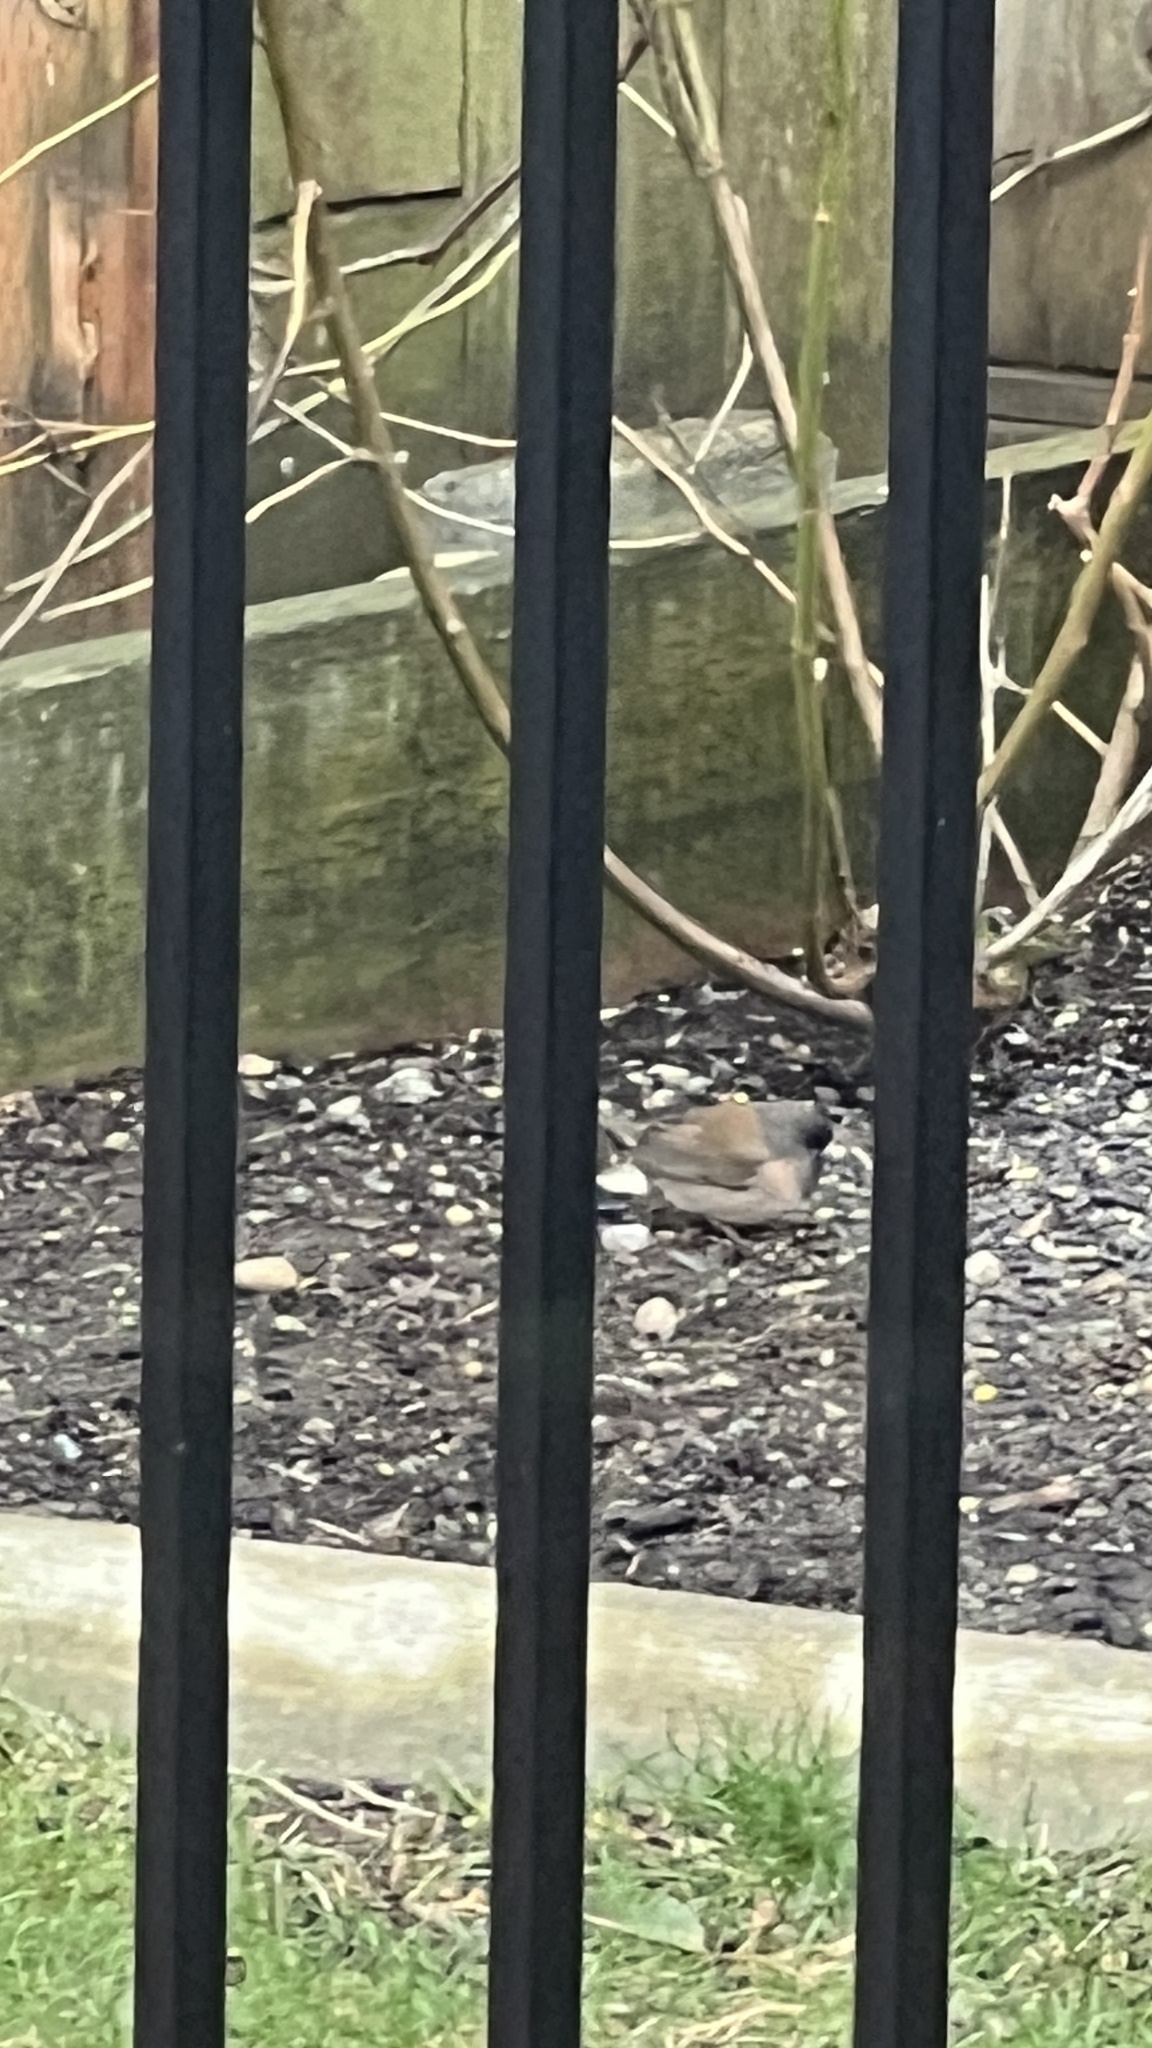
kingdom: Animalia
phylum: Chordata
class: Aves
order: Passeriformes
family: Passerellidae
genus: Junco
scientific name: Junco hyemalis
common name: Dark-eyed junco
